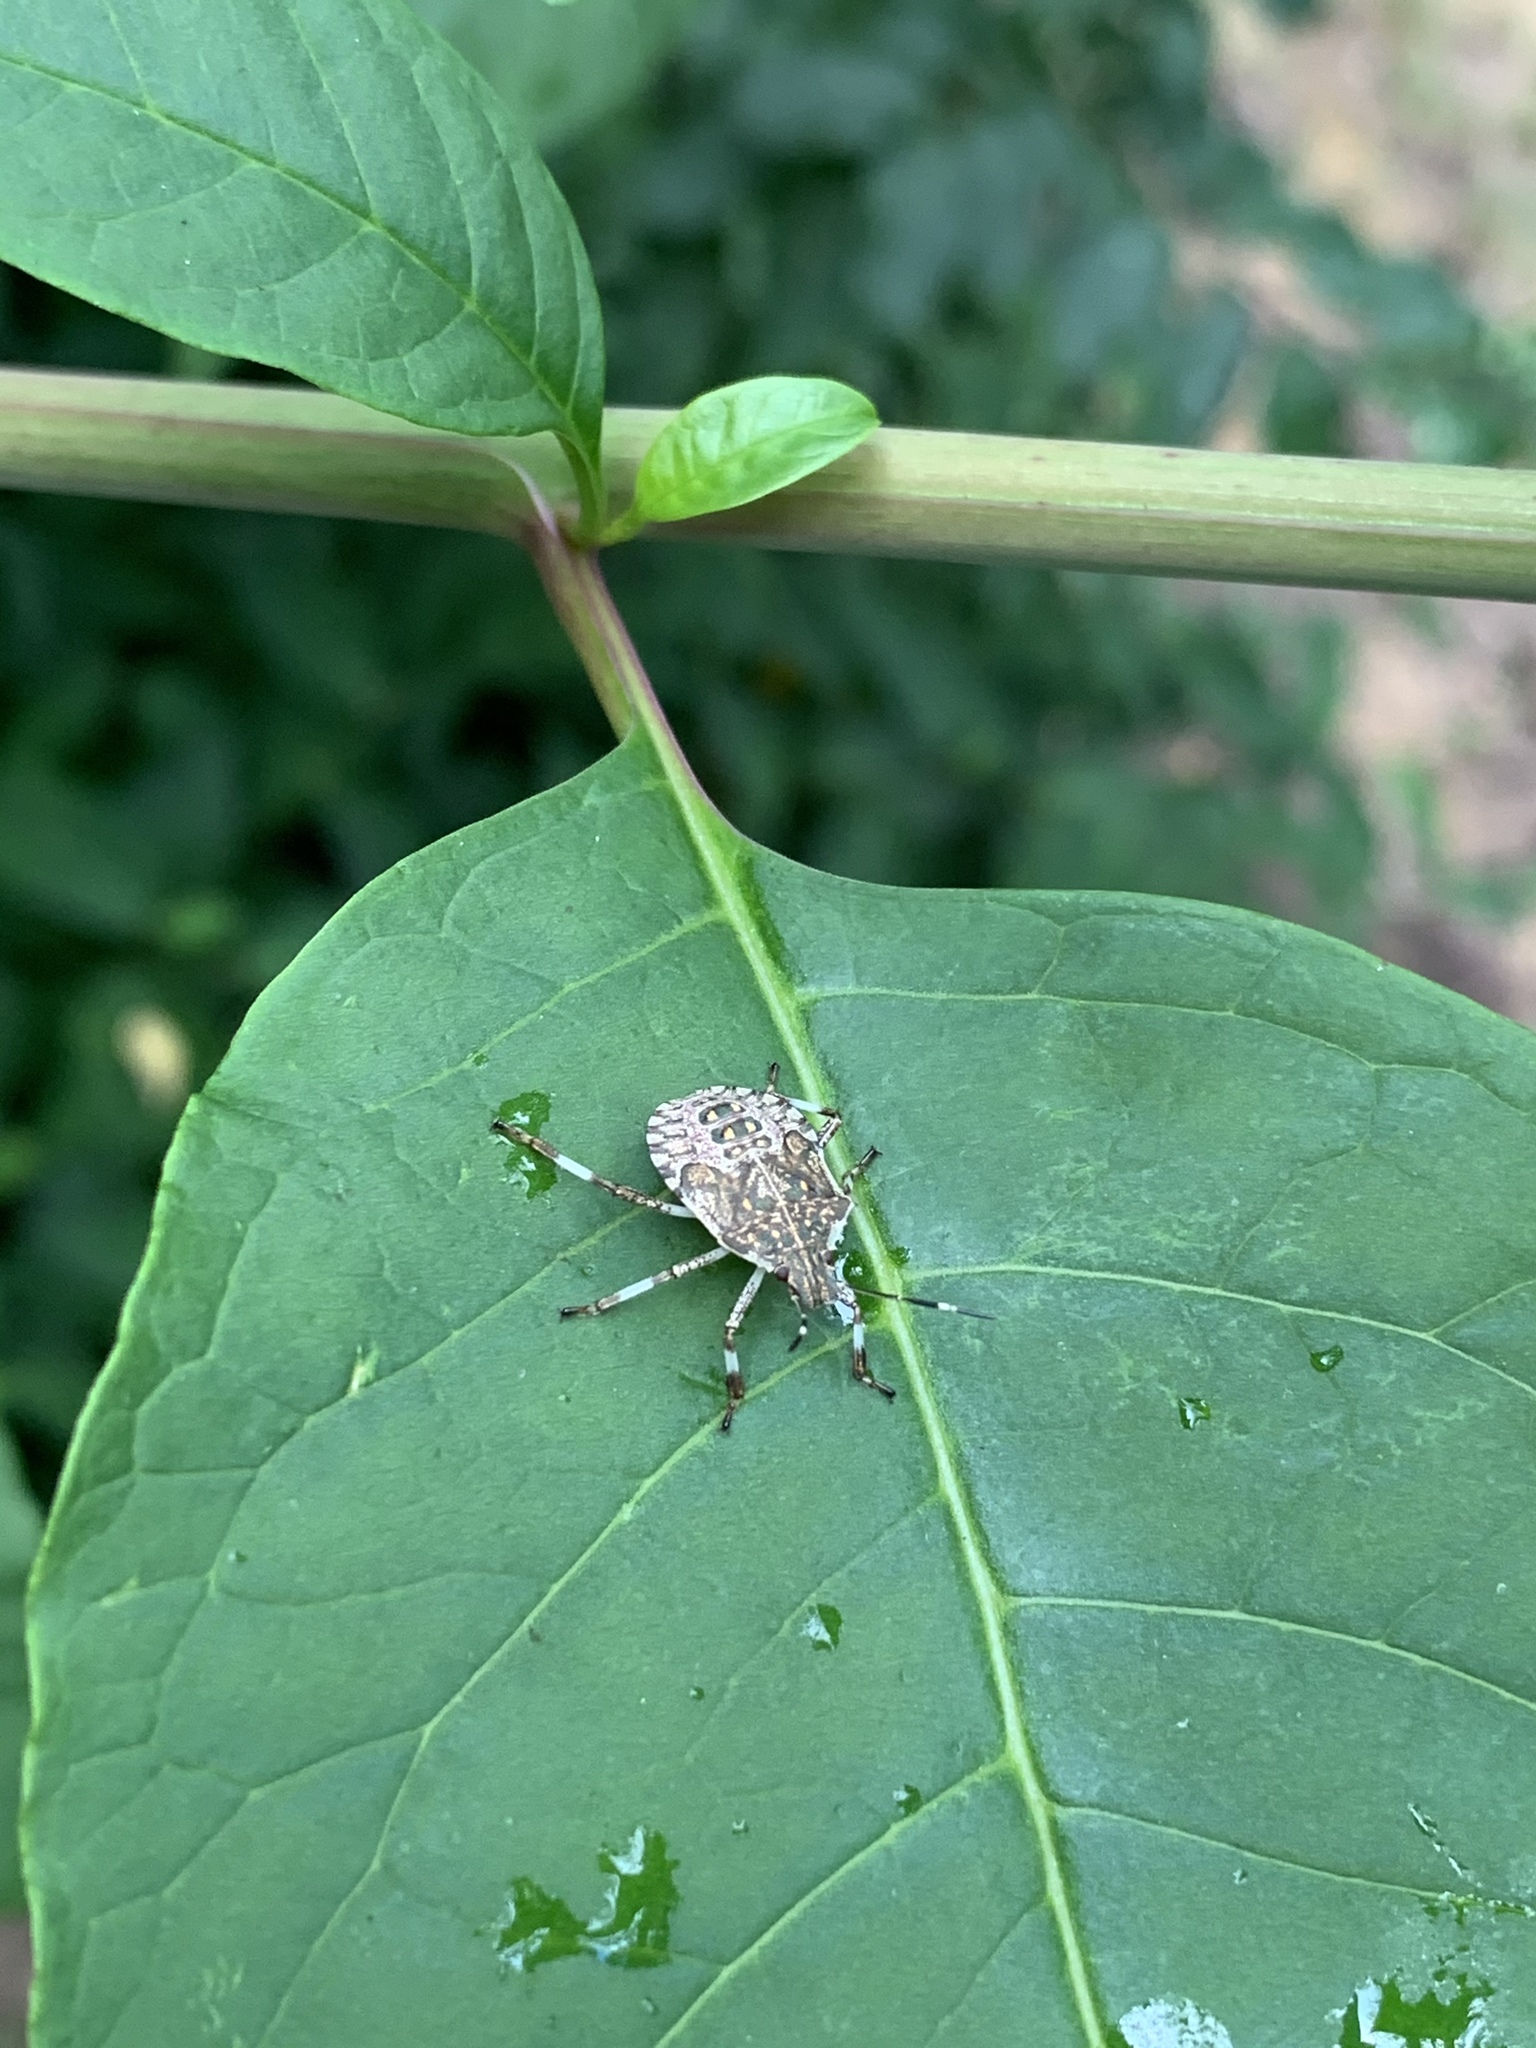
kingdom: Animalia
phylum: Arthropoda
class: Insecta
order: Hemiptera
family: Pentatomidae
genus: Halyomorpha
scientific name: Halyomorpha halys
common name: Brown marmorated stink bug
